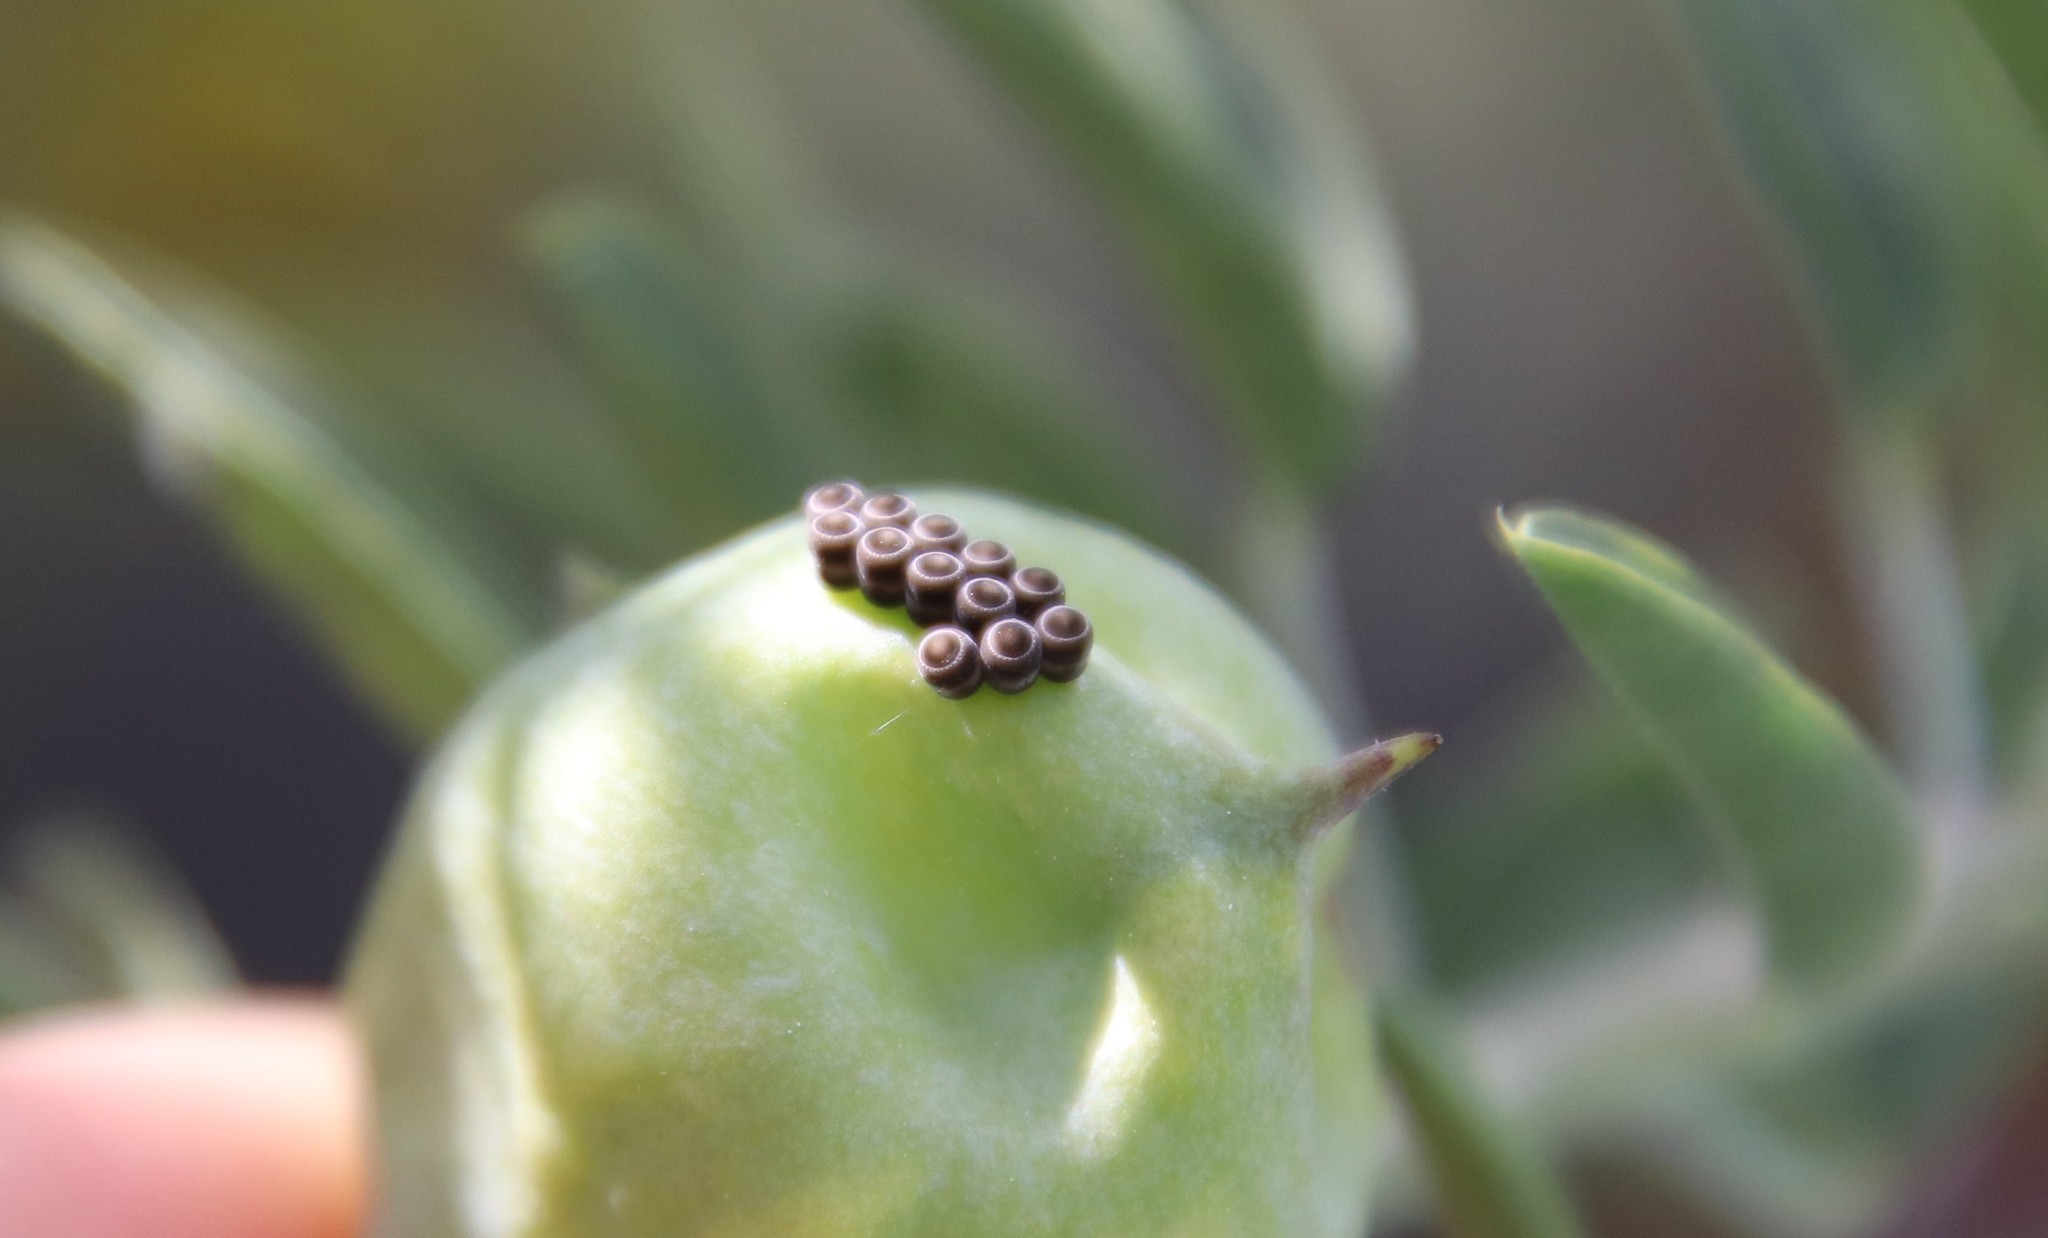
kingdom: Animalia
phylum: Arthropoda
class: Insecta
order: Hemiptera
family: Pentatomidae
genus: Murgantia
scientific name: Murgantia histrionica
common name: Harlequin bug
